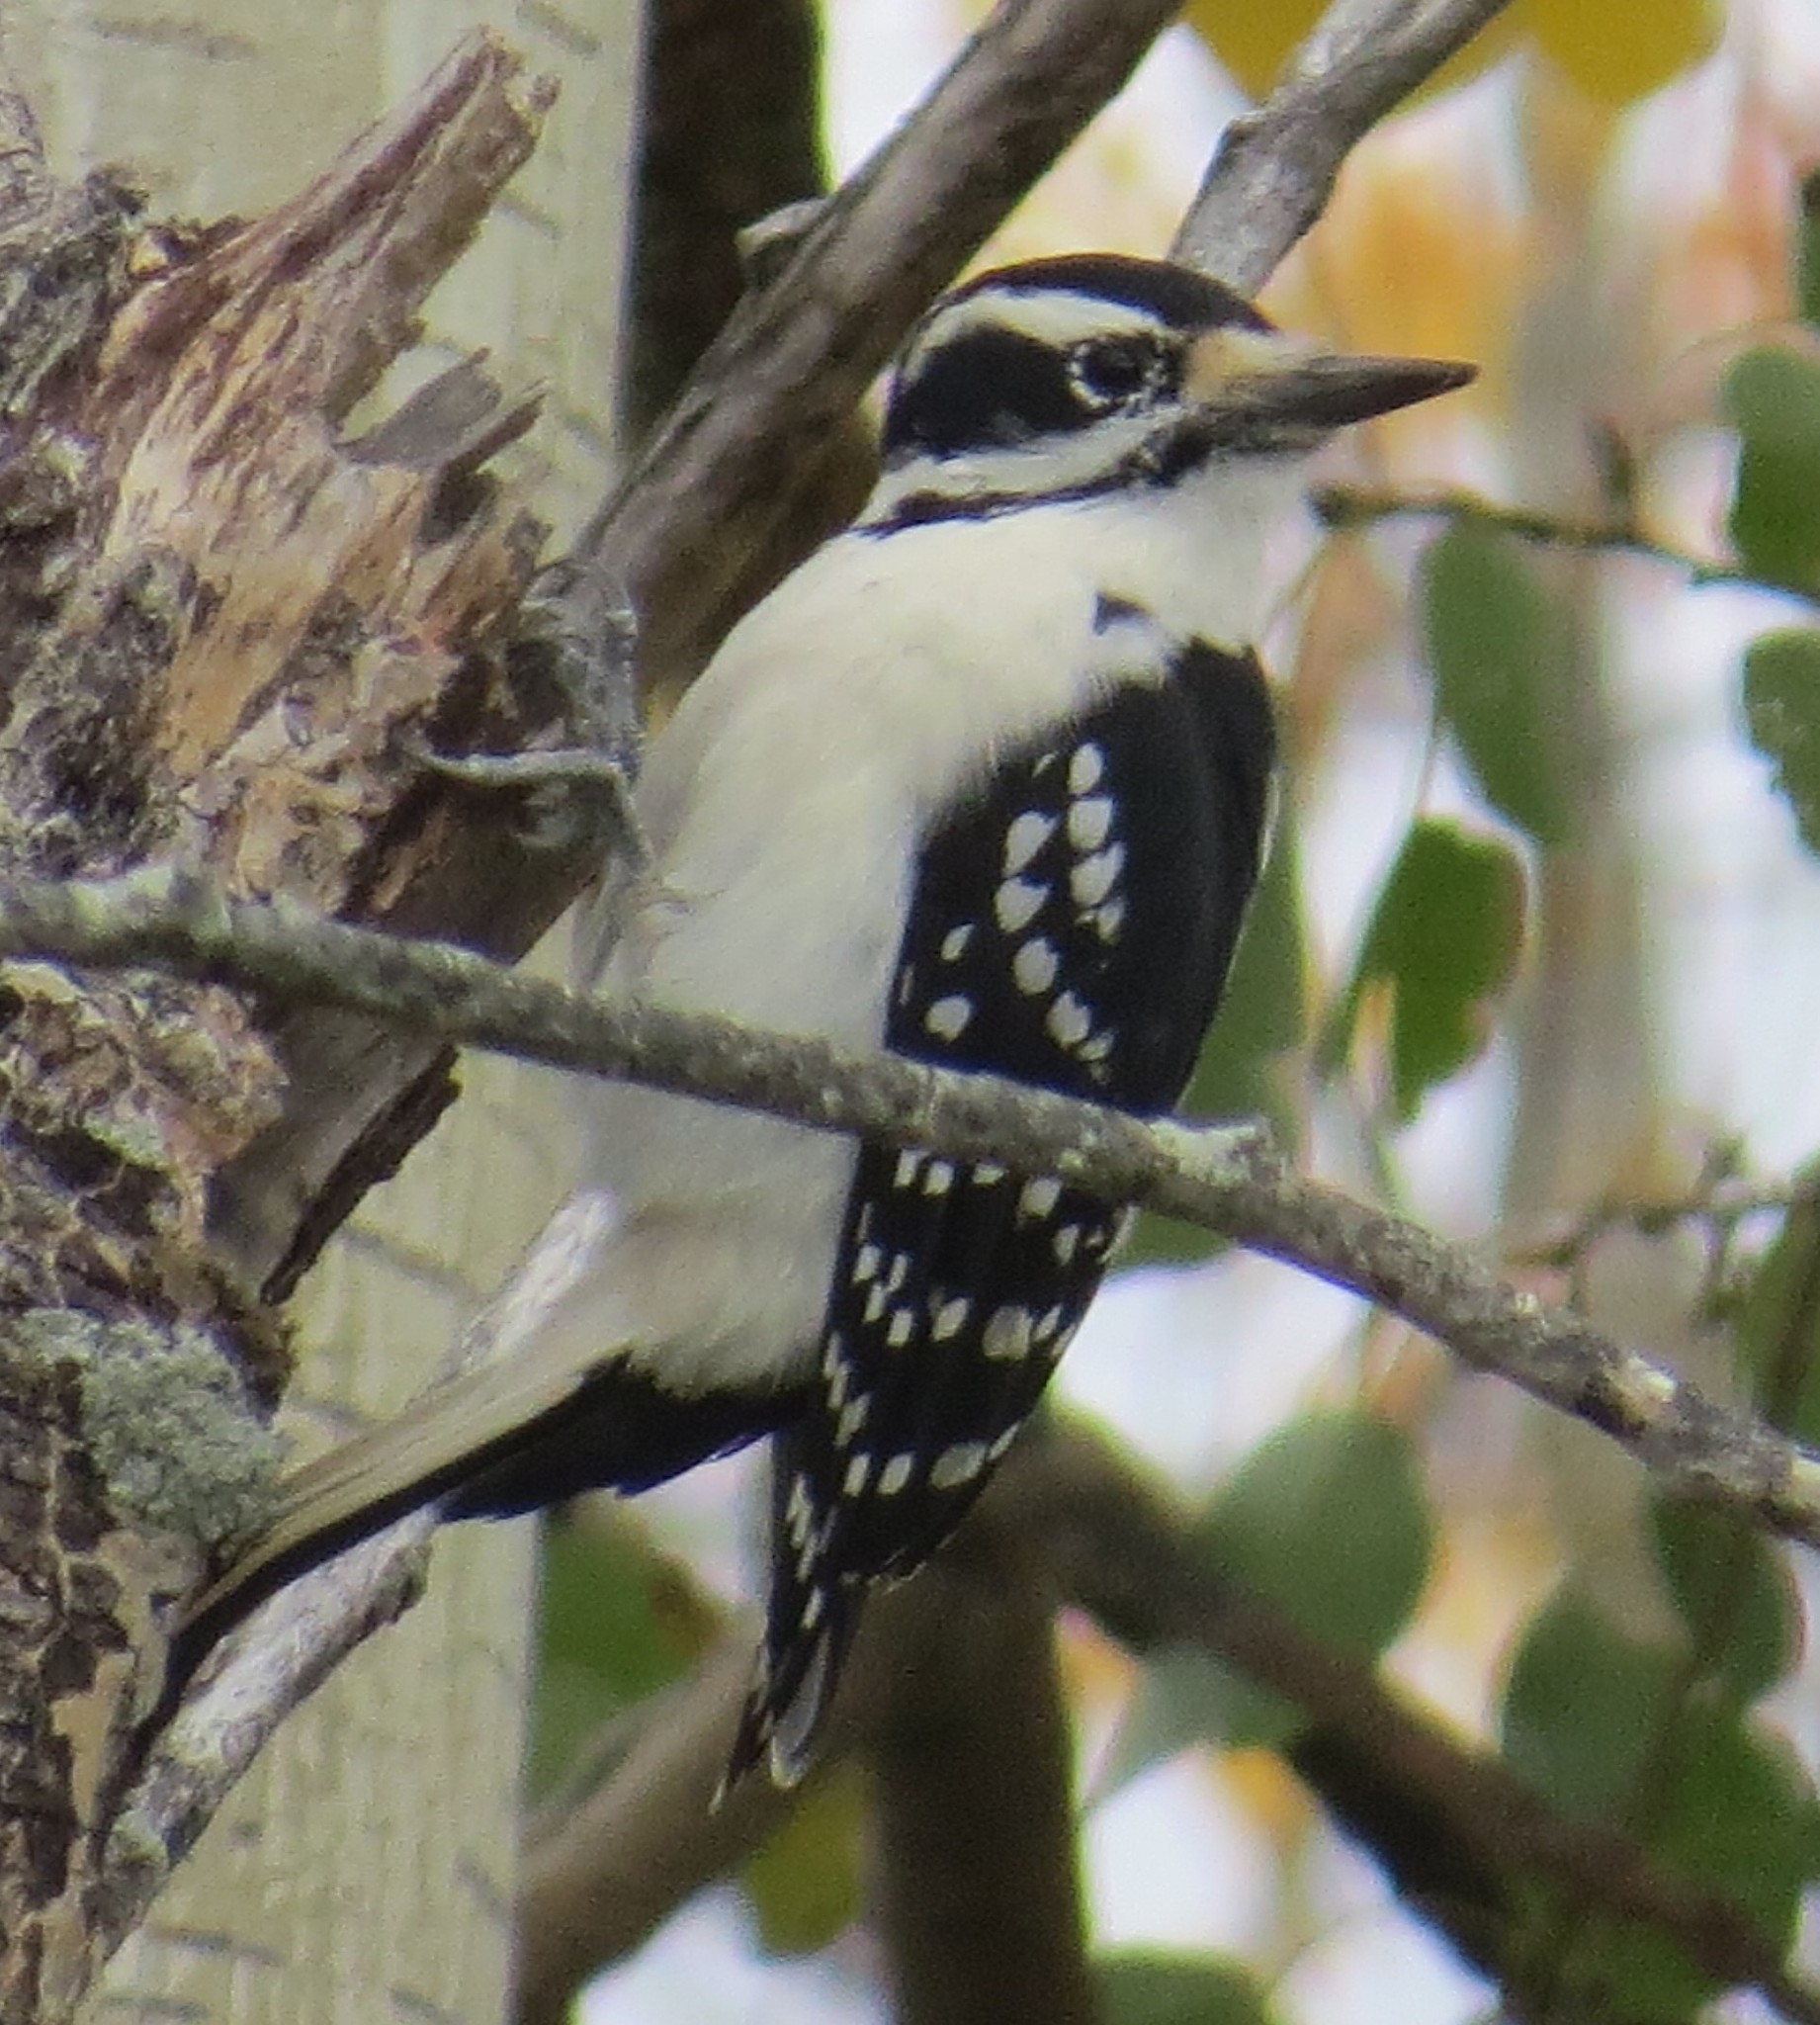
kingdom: Animalia
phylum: Chordata
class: Aves
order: Piciformes
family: Picidae
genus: Leuconotopicus
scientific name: Leuconotopicus villosus
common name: Hairy woodpecker
